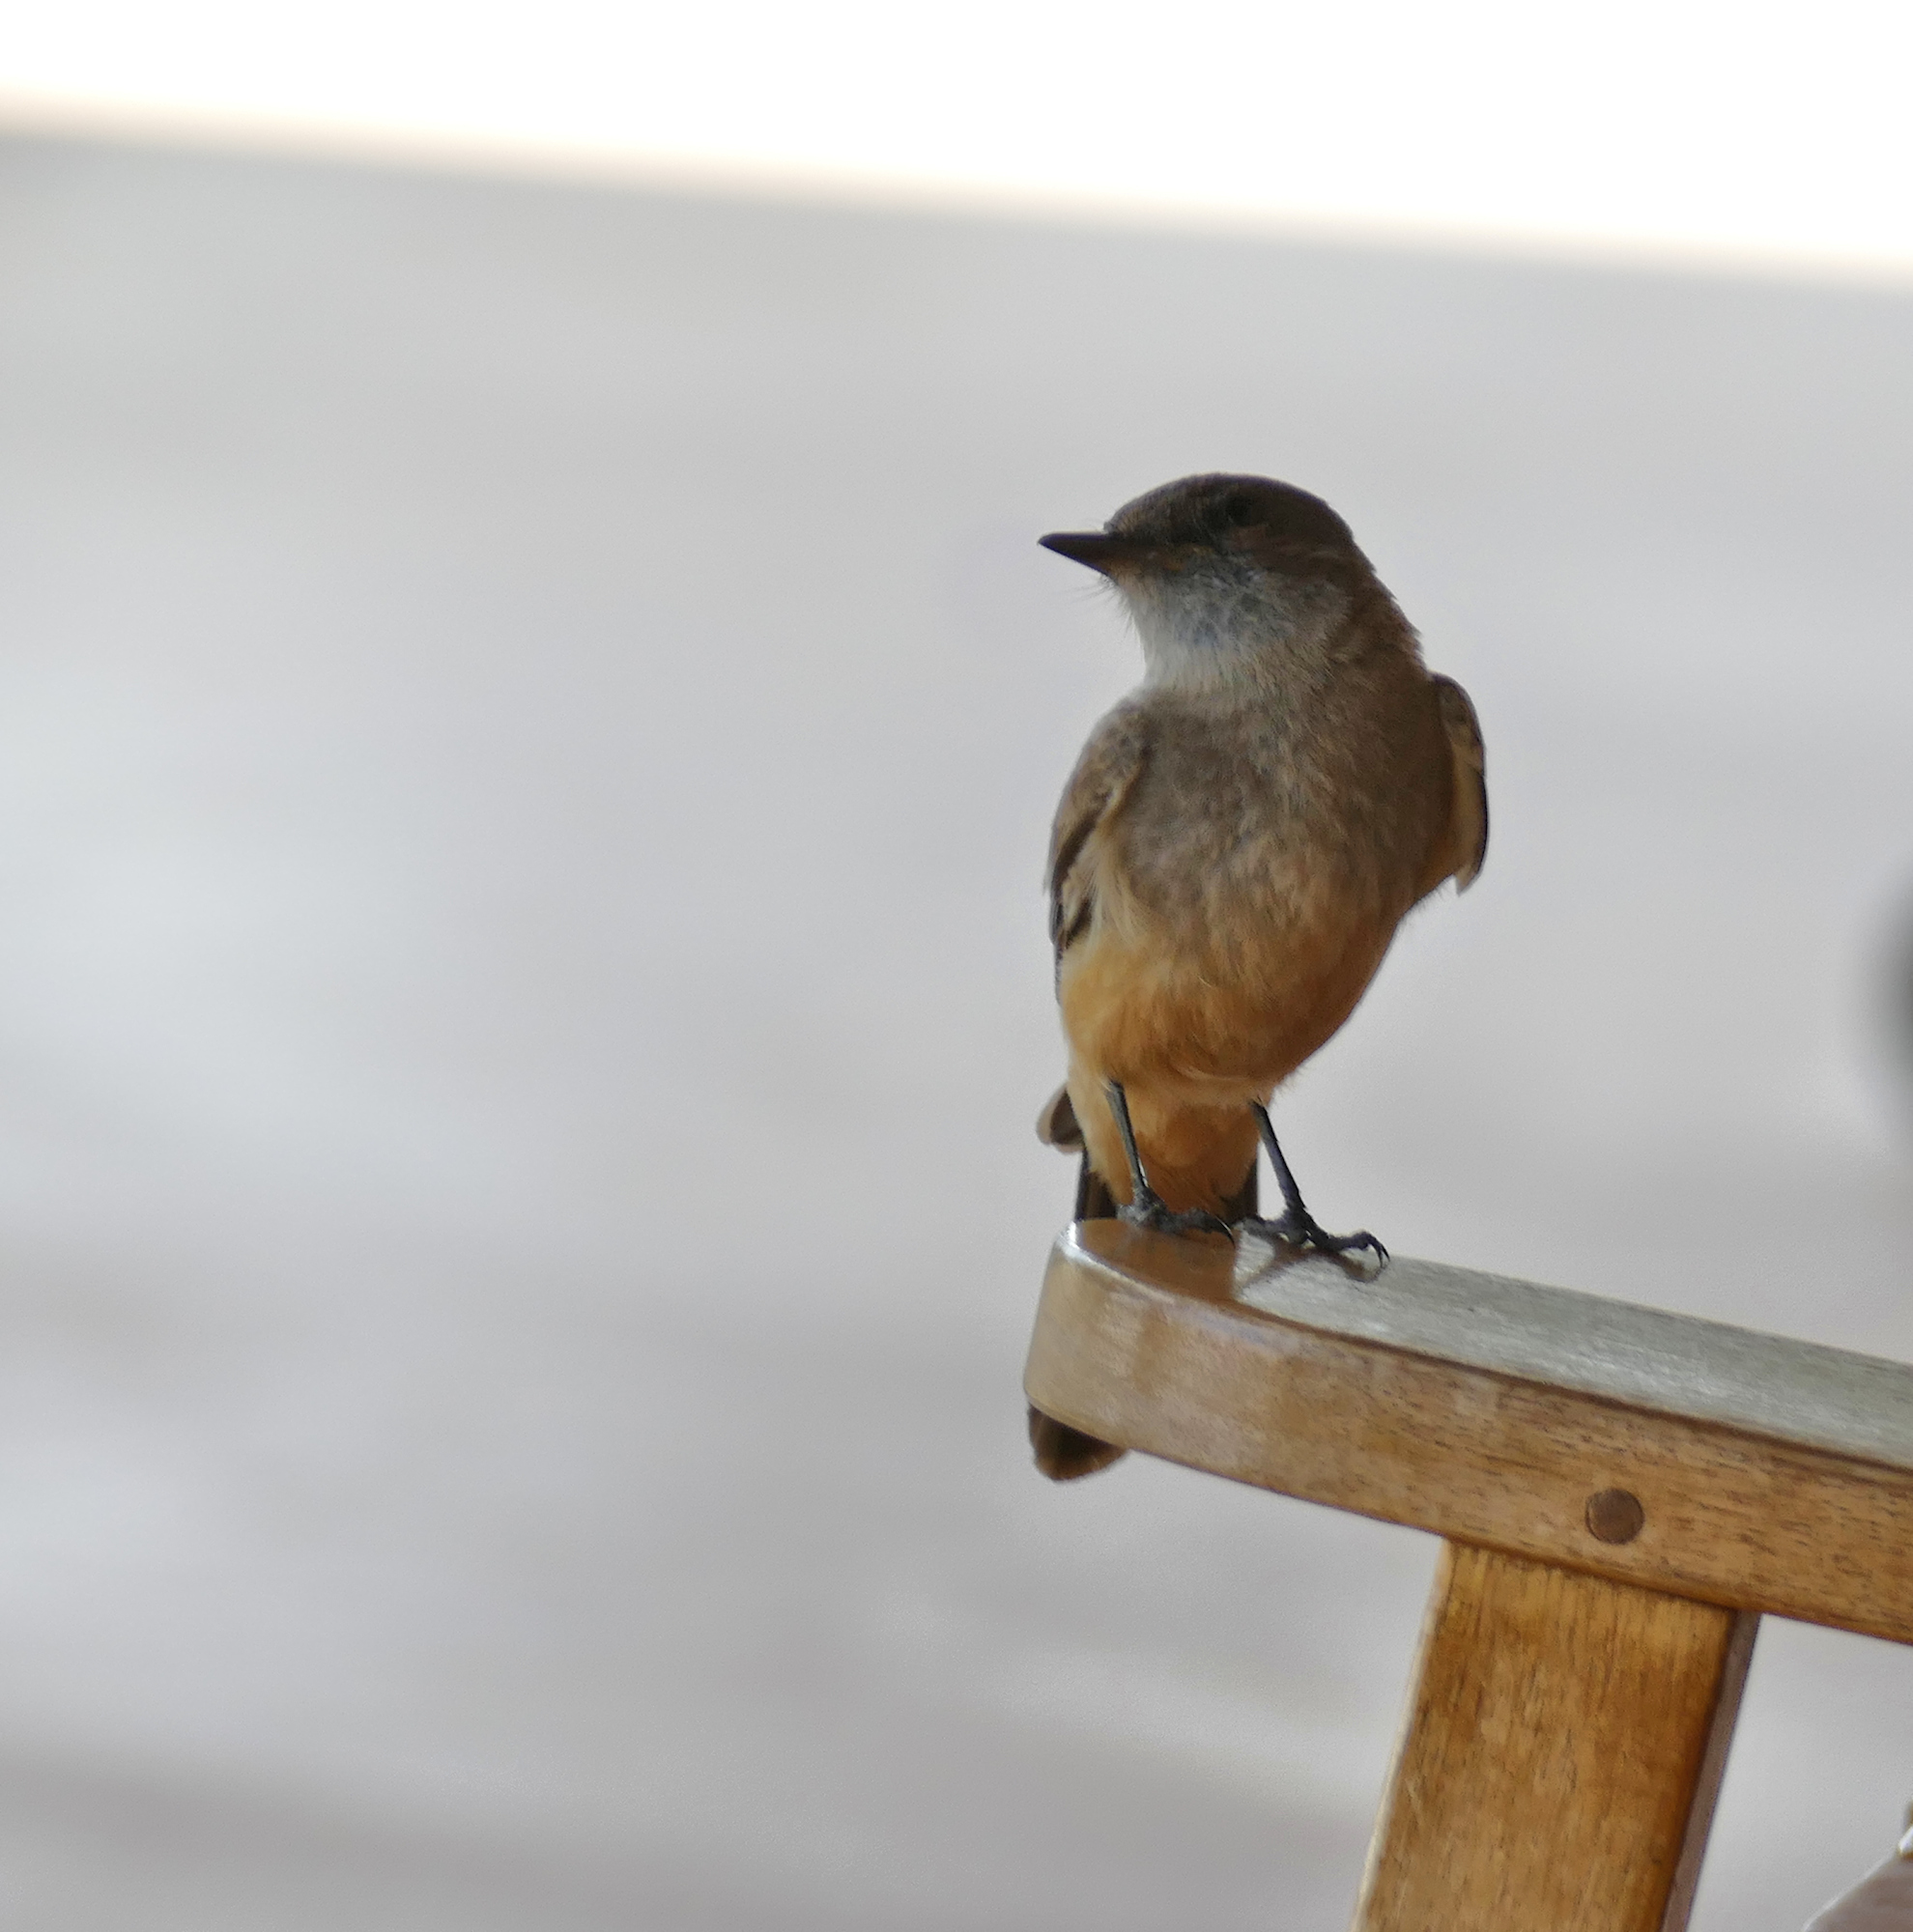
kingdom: Animalia
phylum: Chordata
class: Aves
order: Passeriformes
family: Tyrannidae
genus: Sayornis
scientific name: Sayornis saya
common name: Say's phoebe
